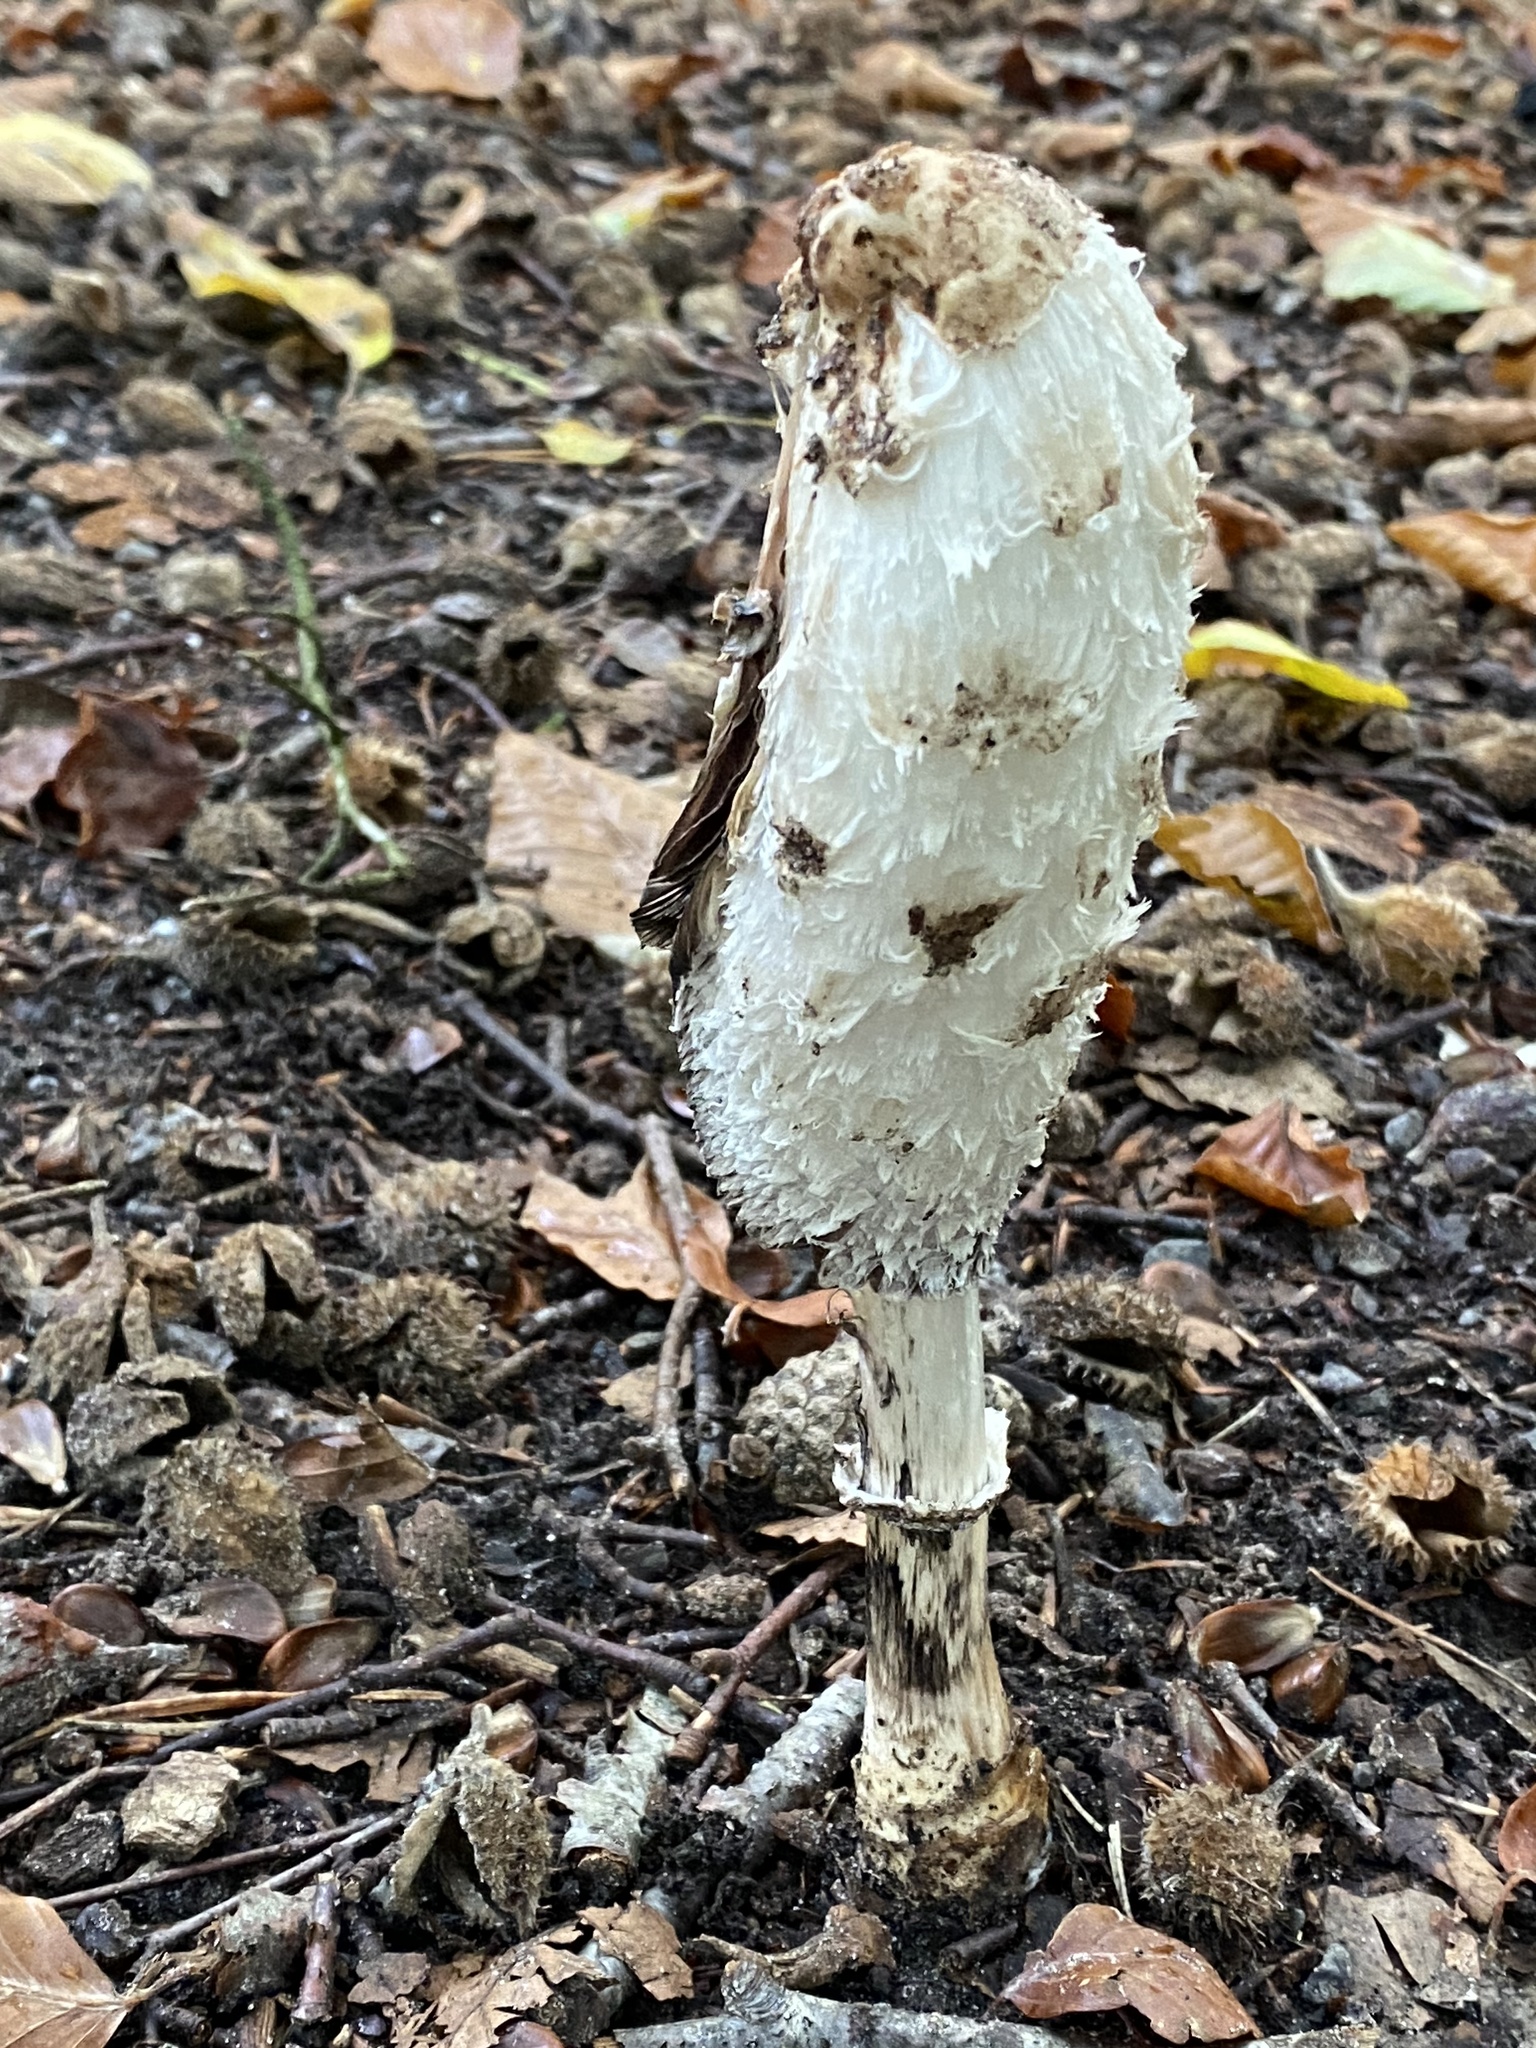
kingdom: Fungi
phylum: Basidiomycota
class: Agaricomycetes
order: Agaricales
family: Agaricaceae
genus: Coprinus
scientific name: Coprinus comatus
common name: Lawyer's wig
